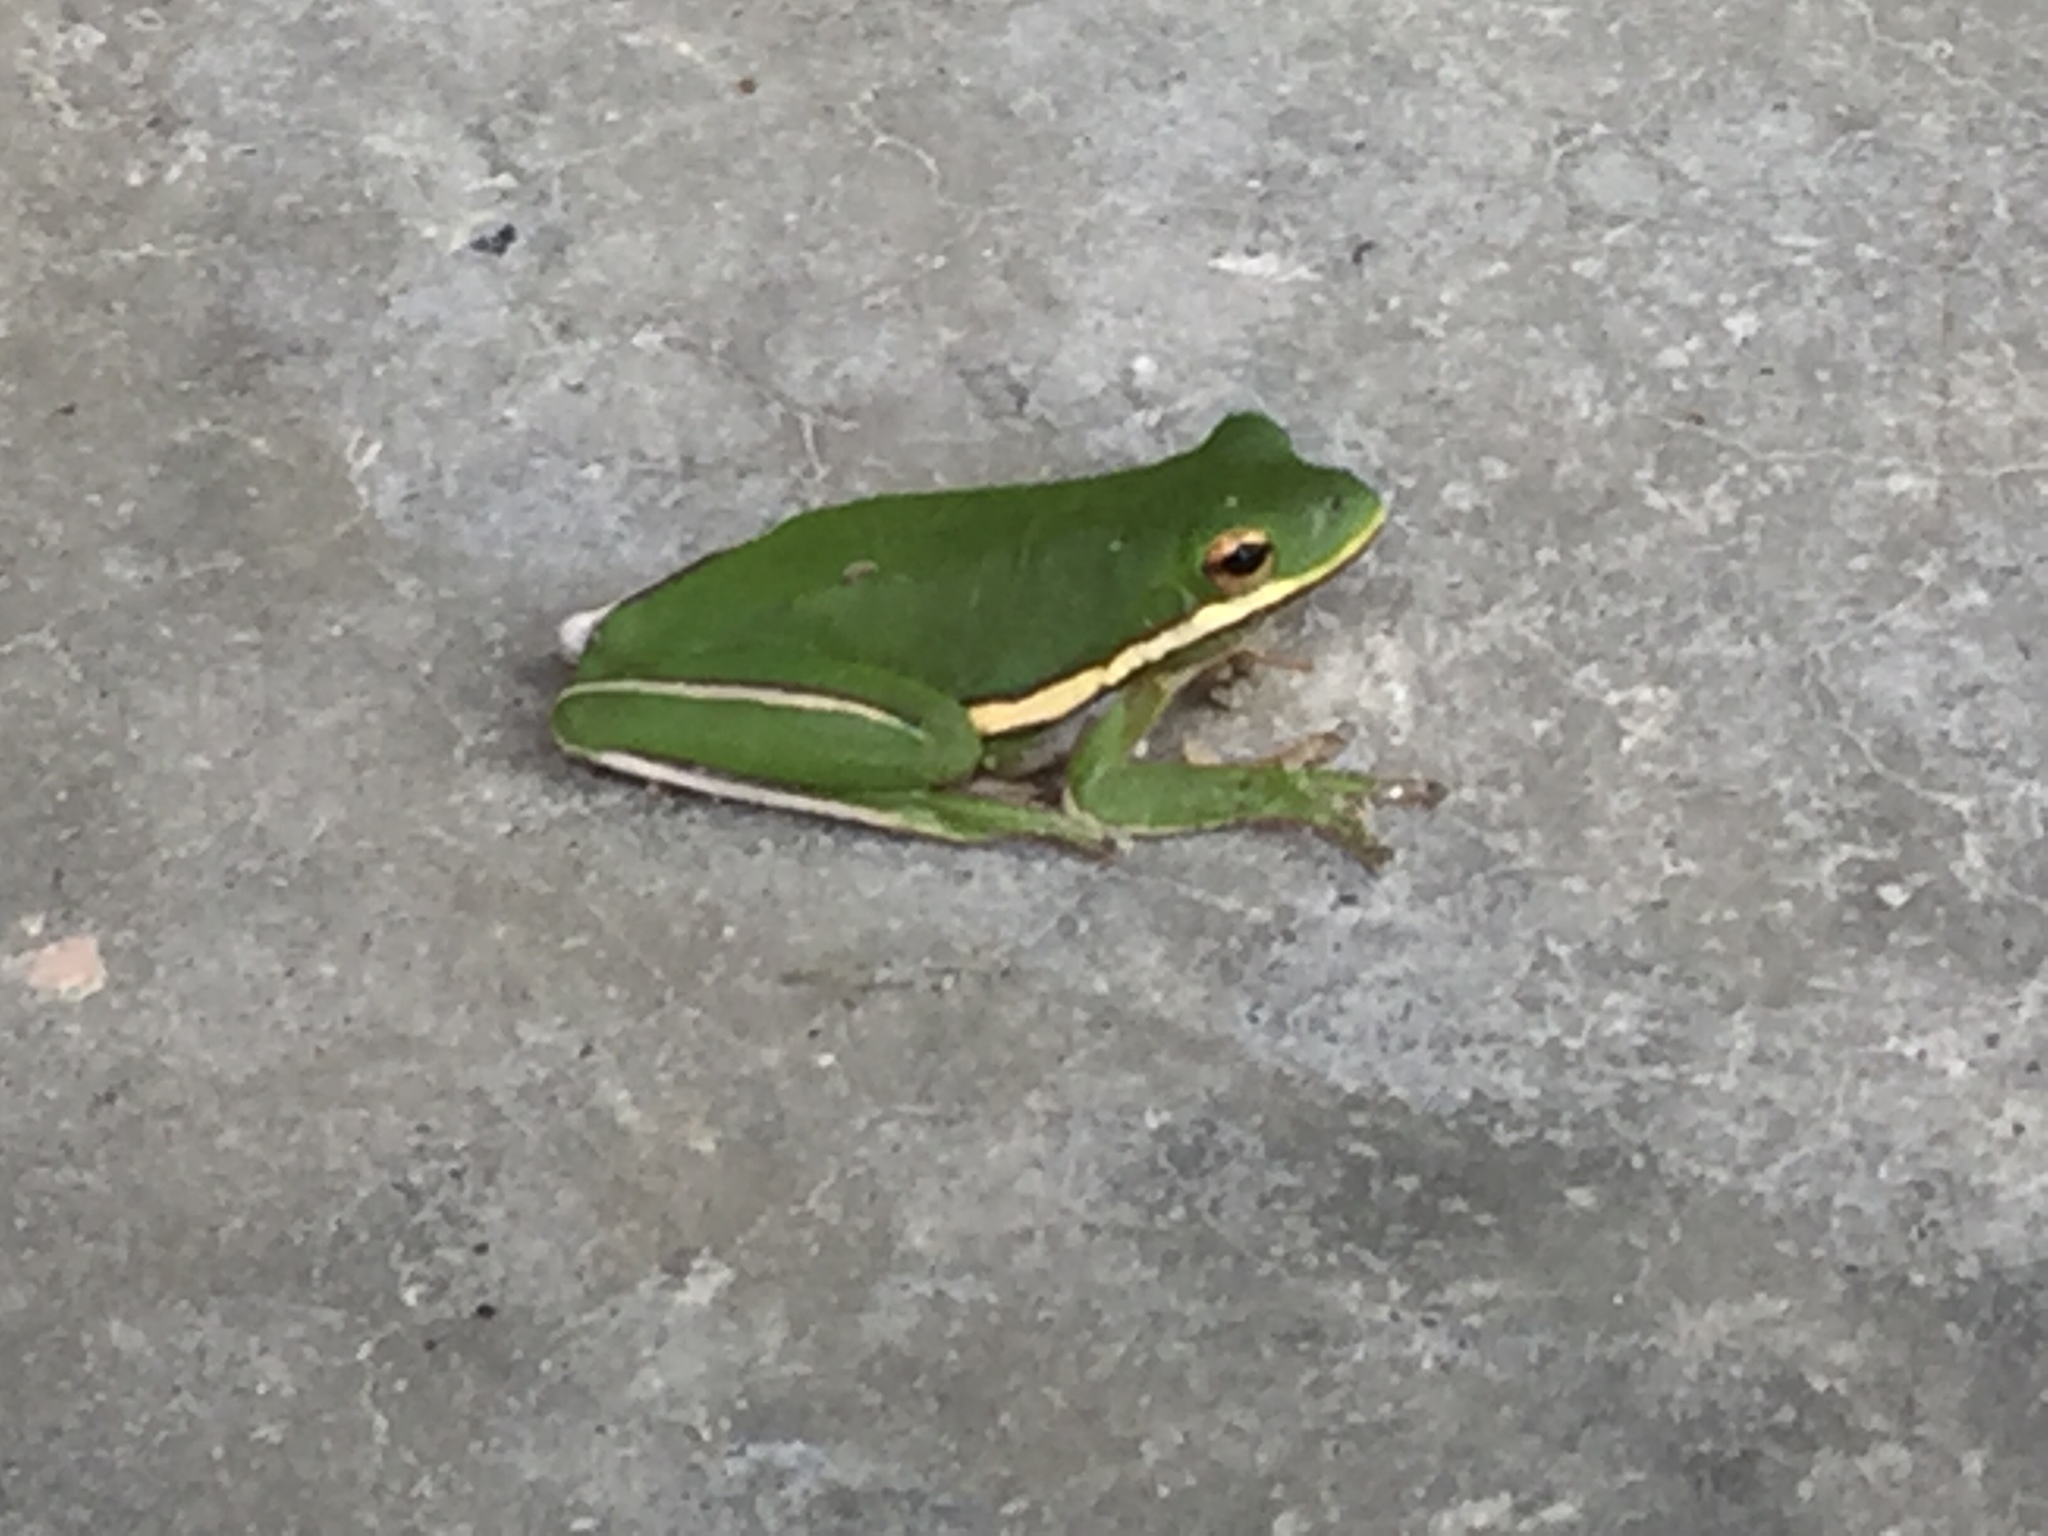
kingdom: Animalia
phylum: Chordata
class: Amphibia
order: Anura
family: Hylidae
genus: Dryophytes
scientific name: Dryophytes cinereus
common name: Green treefrog
